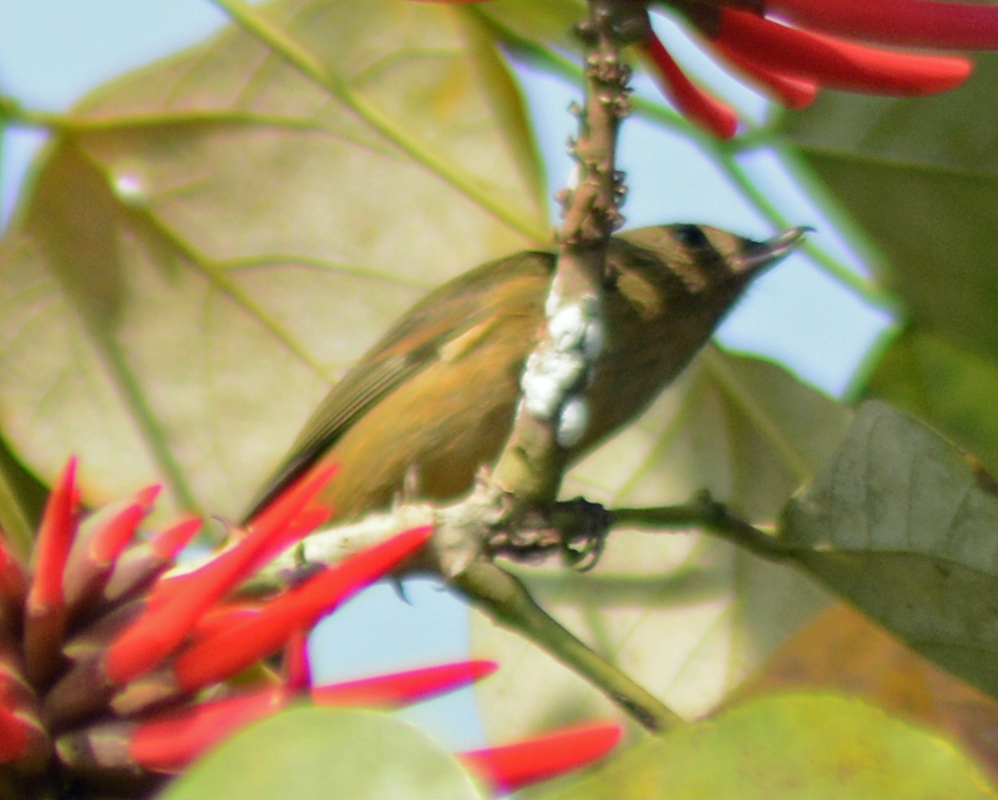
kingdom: Animalia
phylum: Chordata
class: Aves
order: Passeriformes
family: Thraupidae
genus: Diglossa
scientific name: Diglossa baritula
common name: Cinnamon-bellied flowerpiercer
